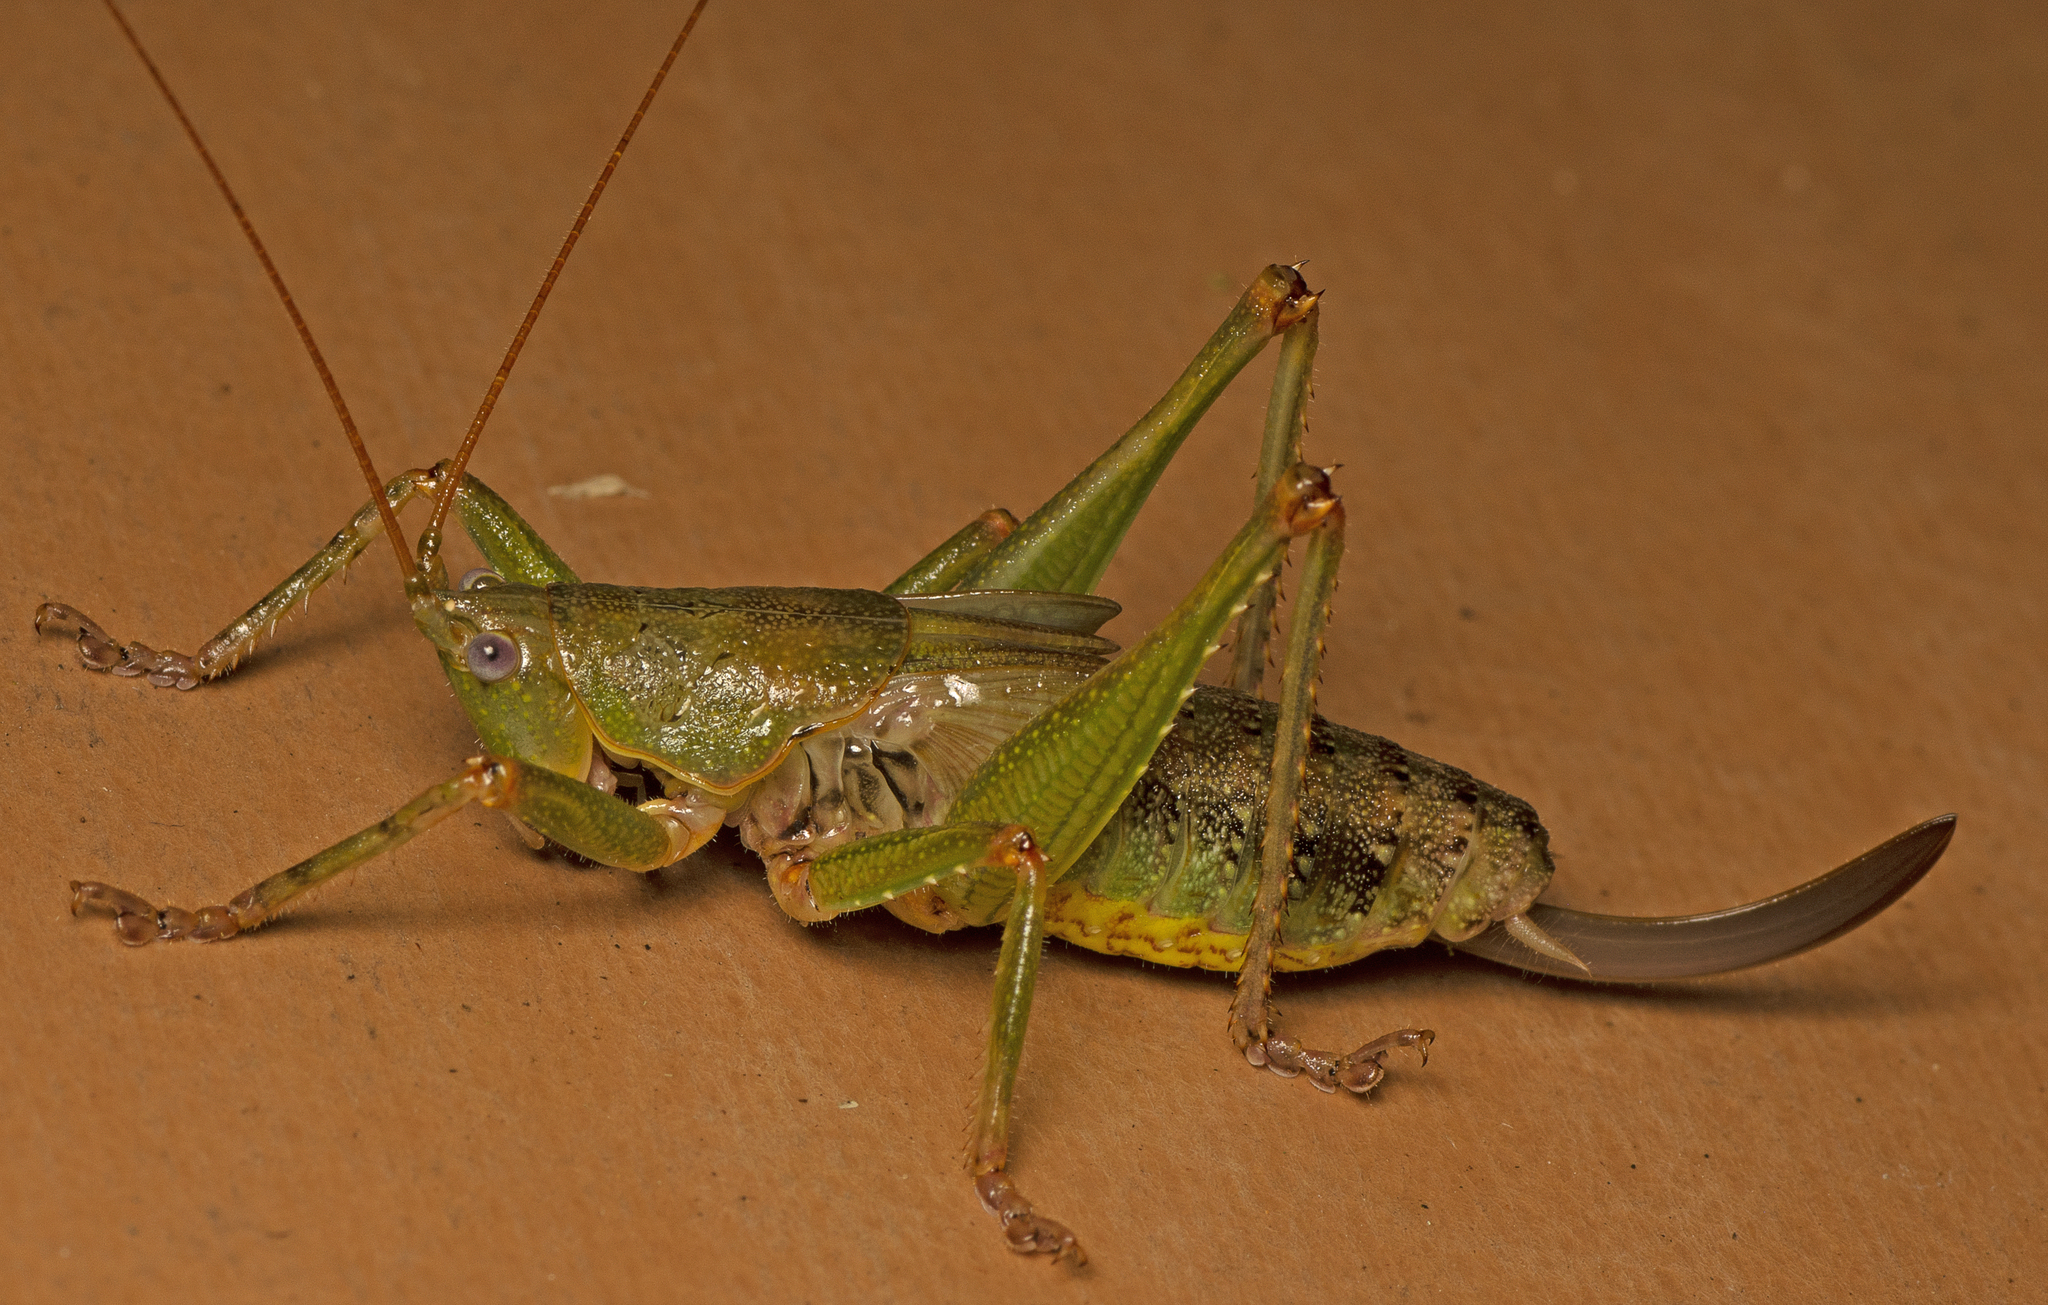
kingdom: Animalia
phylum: Arthropoda
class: Insecta
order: Orthoptera
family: Tettigoniidae
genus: Austrosalomona
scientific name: Austrosalomona destructor
